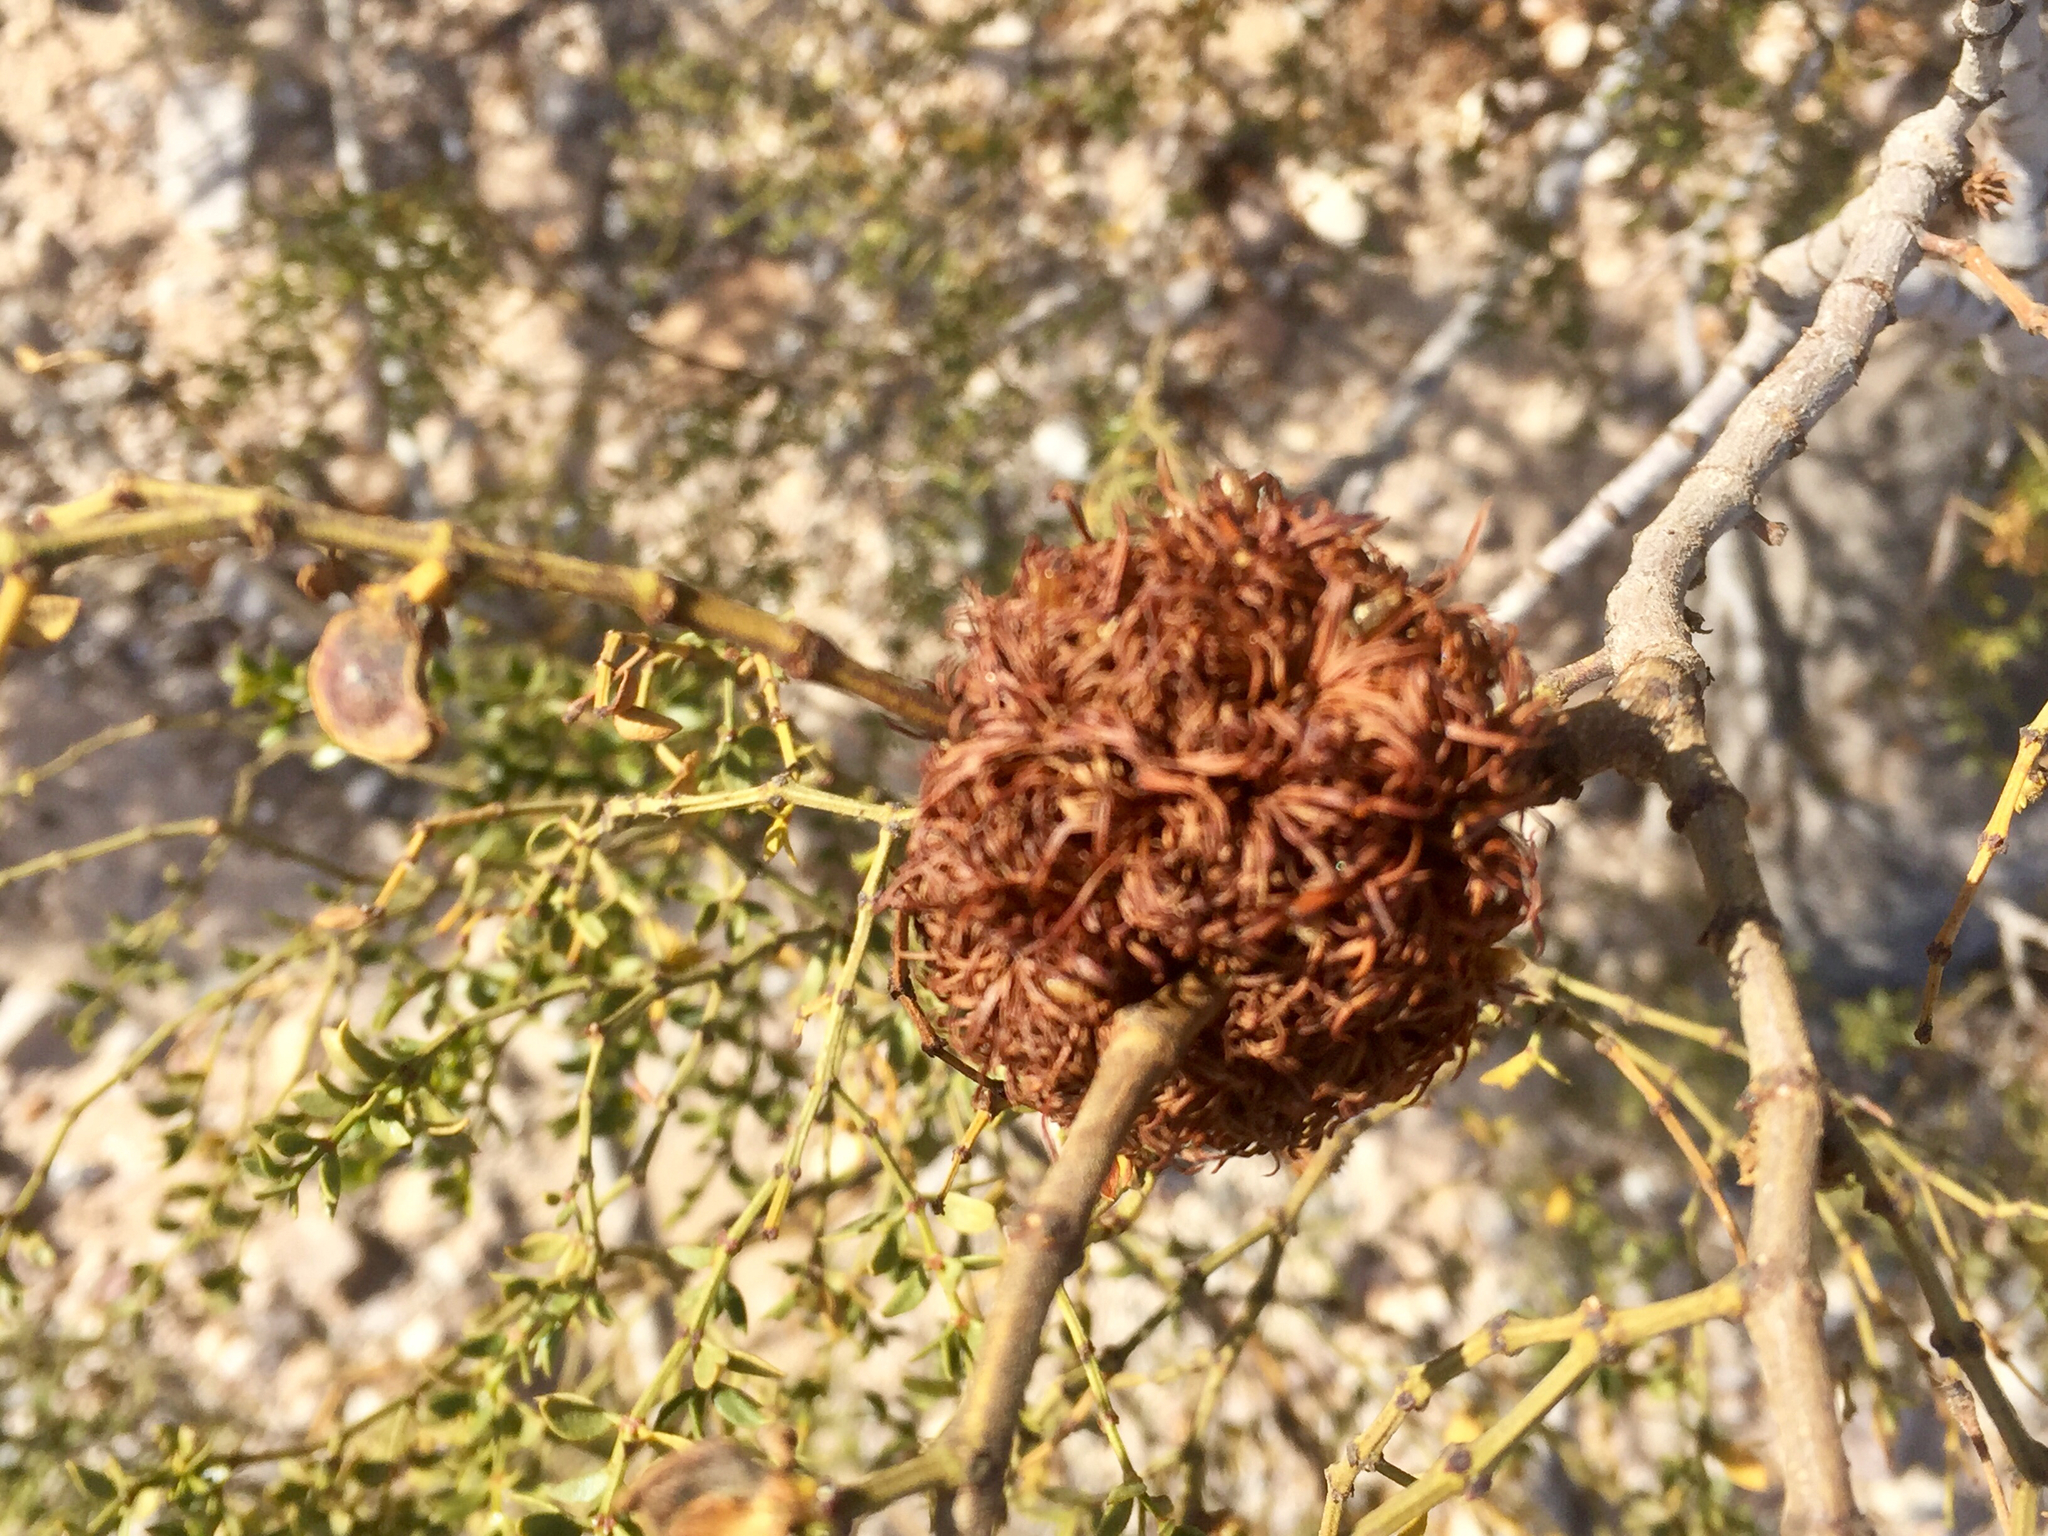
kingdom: Animalia
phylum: Arthropoda
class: Insecta
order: Diptera
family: Cecidomyiidae
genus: Asphondylia
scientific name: Asphondylia auripila
